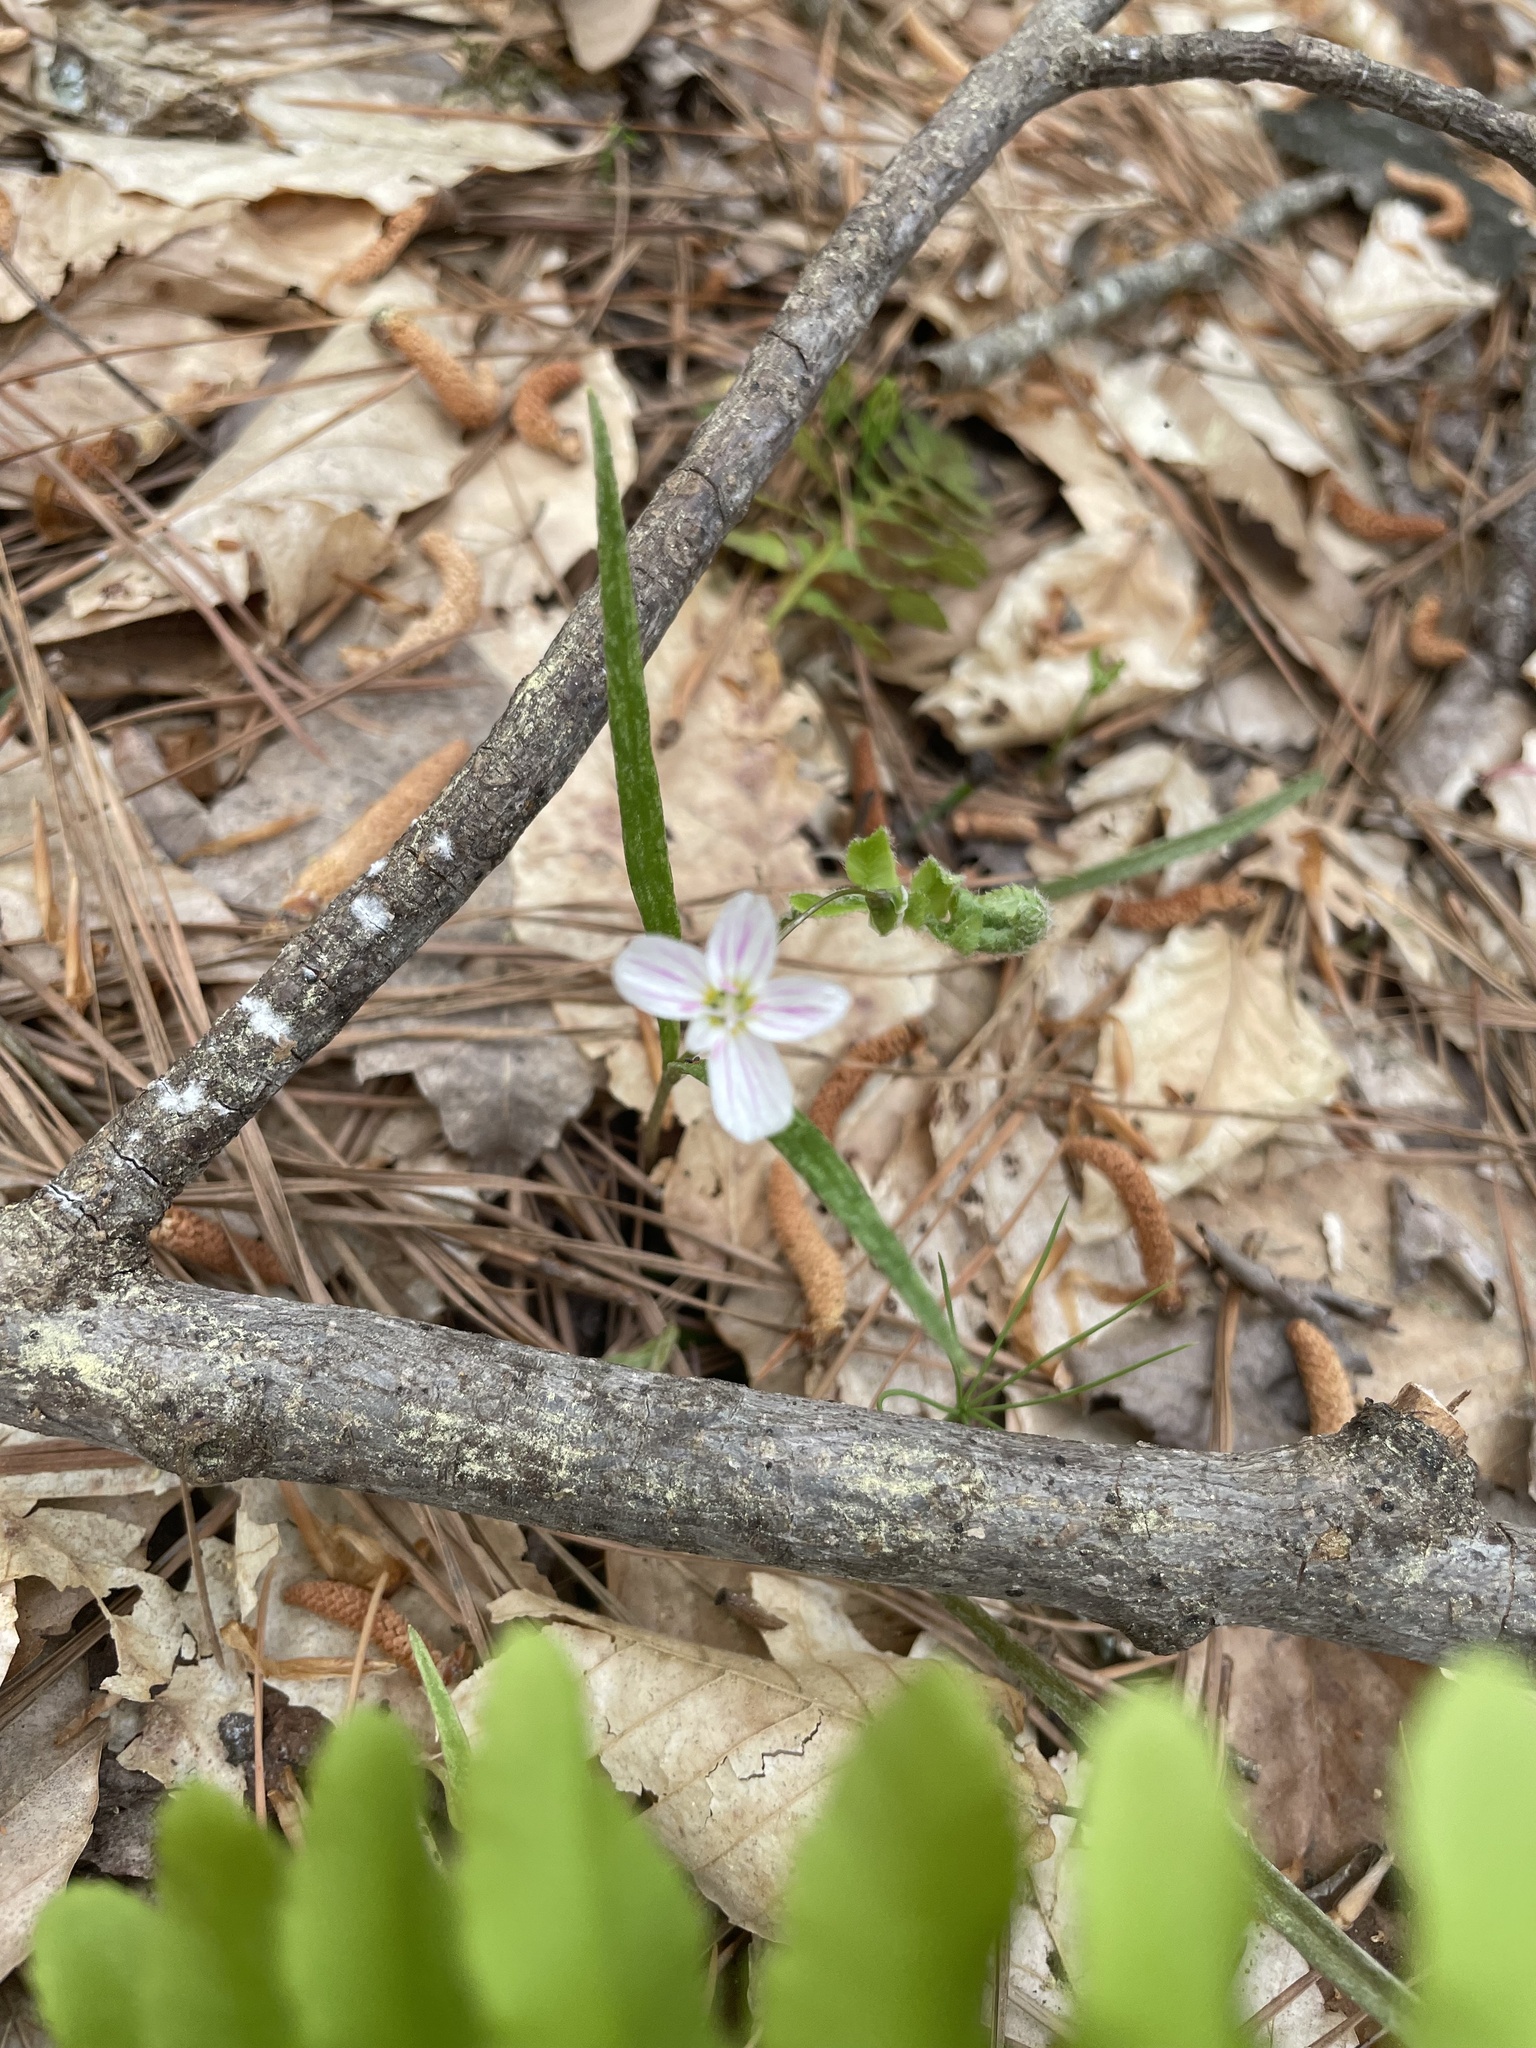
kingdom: Plantae
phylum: Tracheophyta
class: Magnoliopsida
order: Caryophyllales
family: Montiaceae
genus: Claytonia
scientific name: Claytonia virginica
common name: Virginia springbeauty
